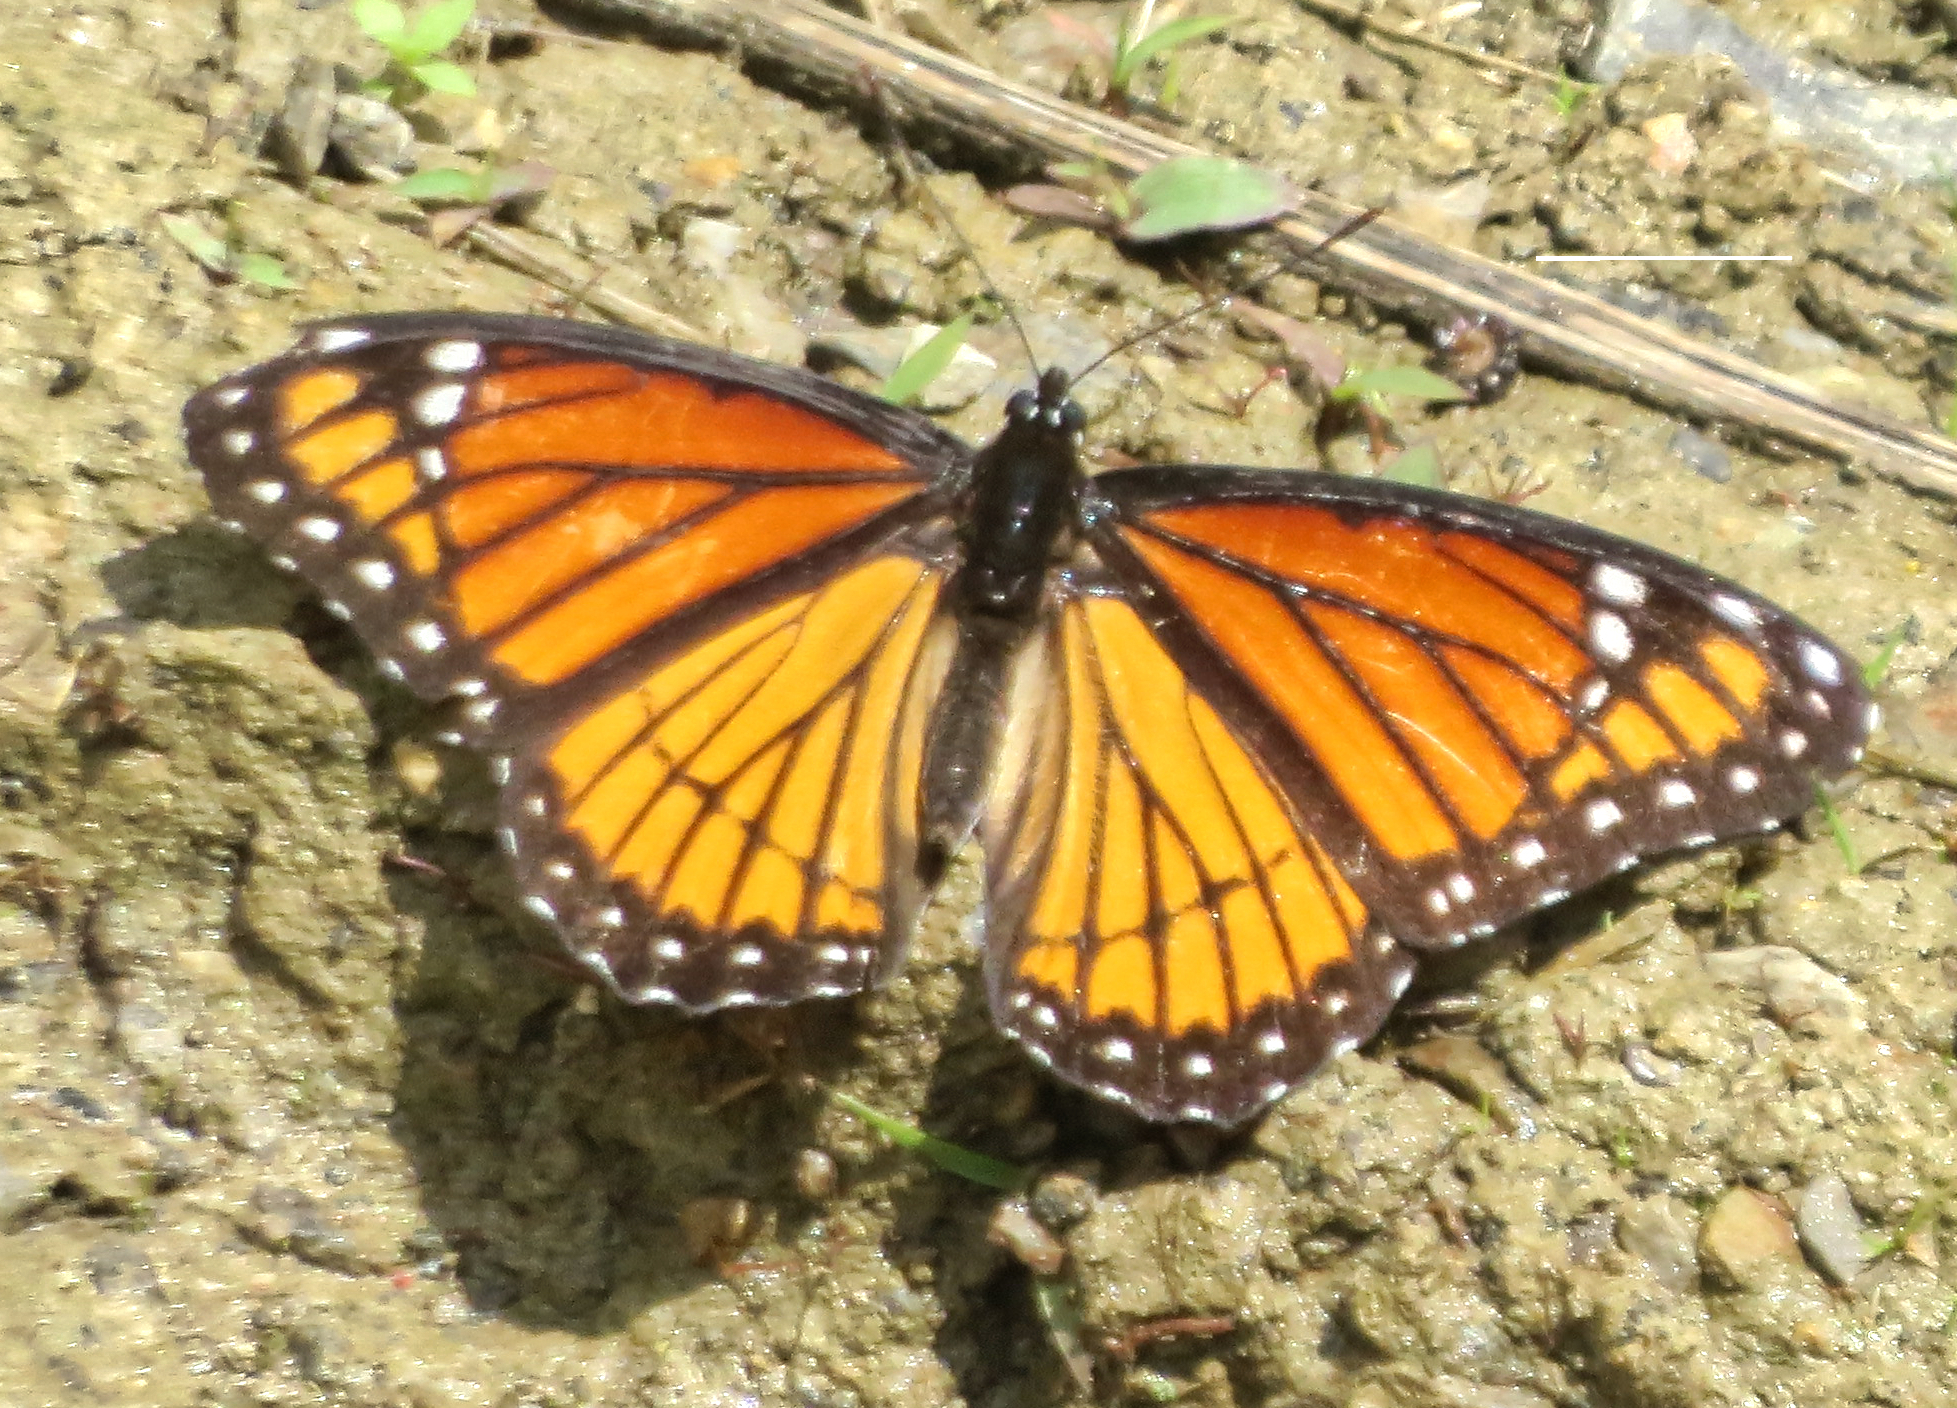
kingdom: Animalia
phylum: Arthropoda
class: Insecta
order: Lepidoptera
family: Nymphalidae
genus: Limenitis
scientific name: Limenitis archippus
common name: Viceroy
